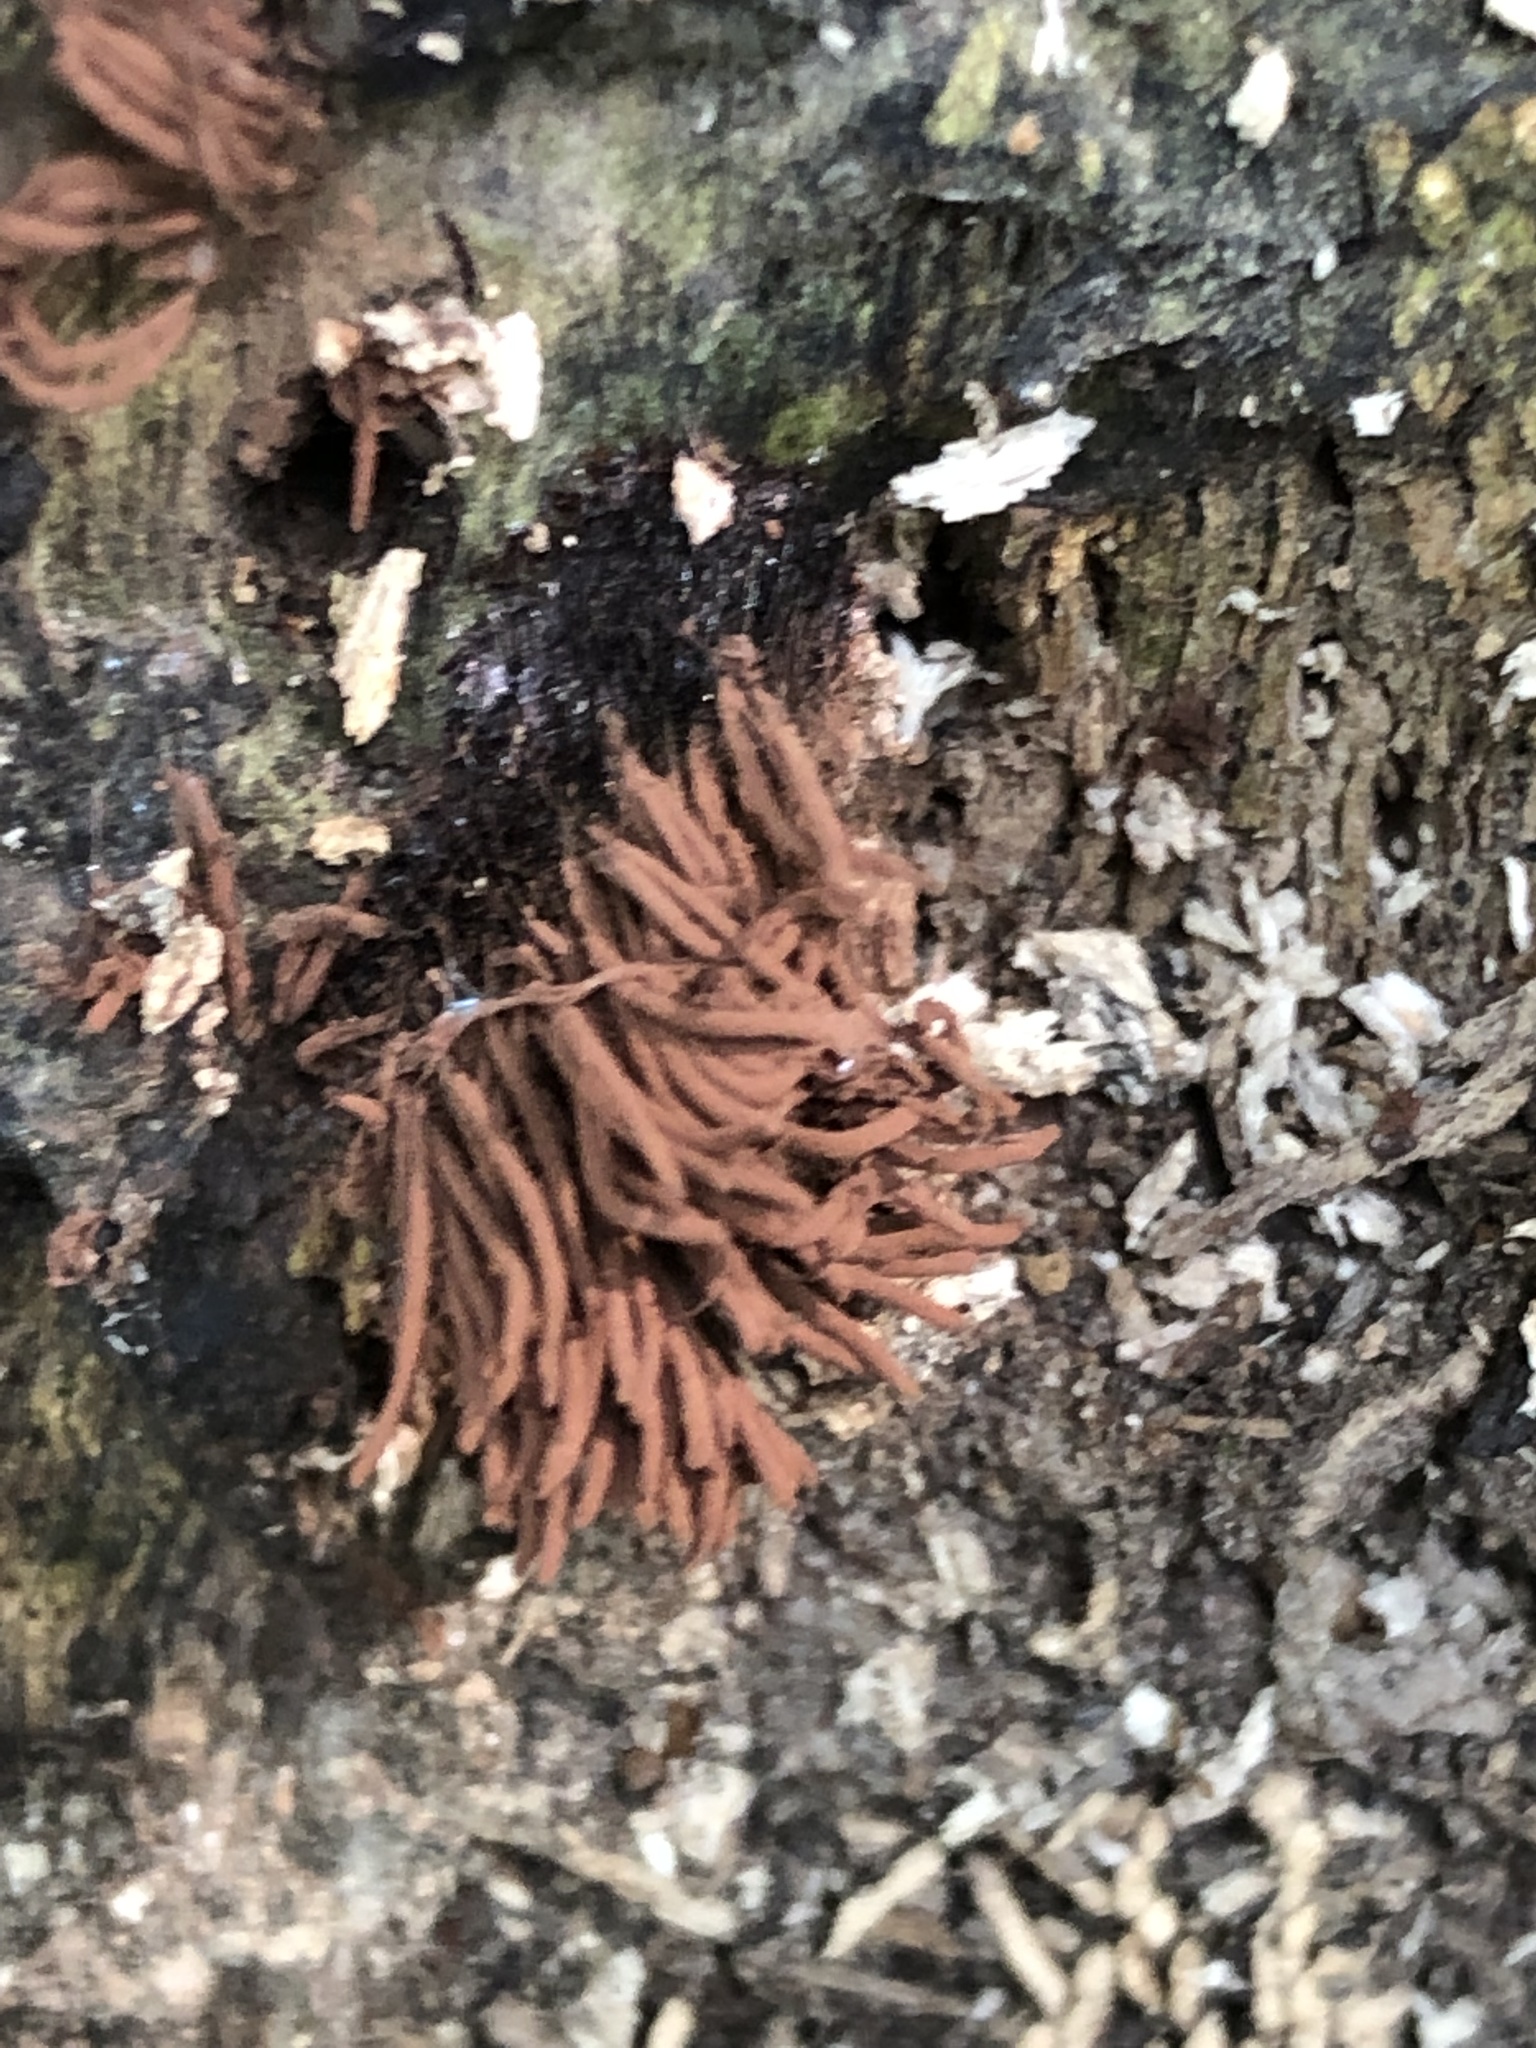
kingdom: Protozoa
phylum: Mycetozoa
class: Myxomycetes
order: Stemonitidales
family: Stemonitidaceae
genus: Stemonitis
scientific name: Stemonitis splendens
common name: Chocolate tube slime
